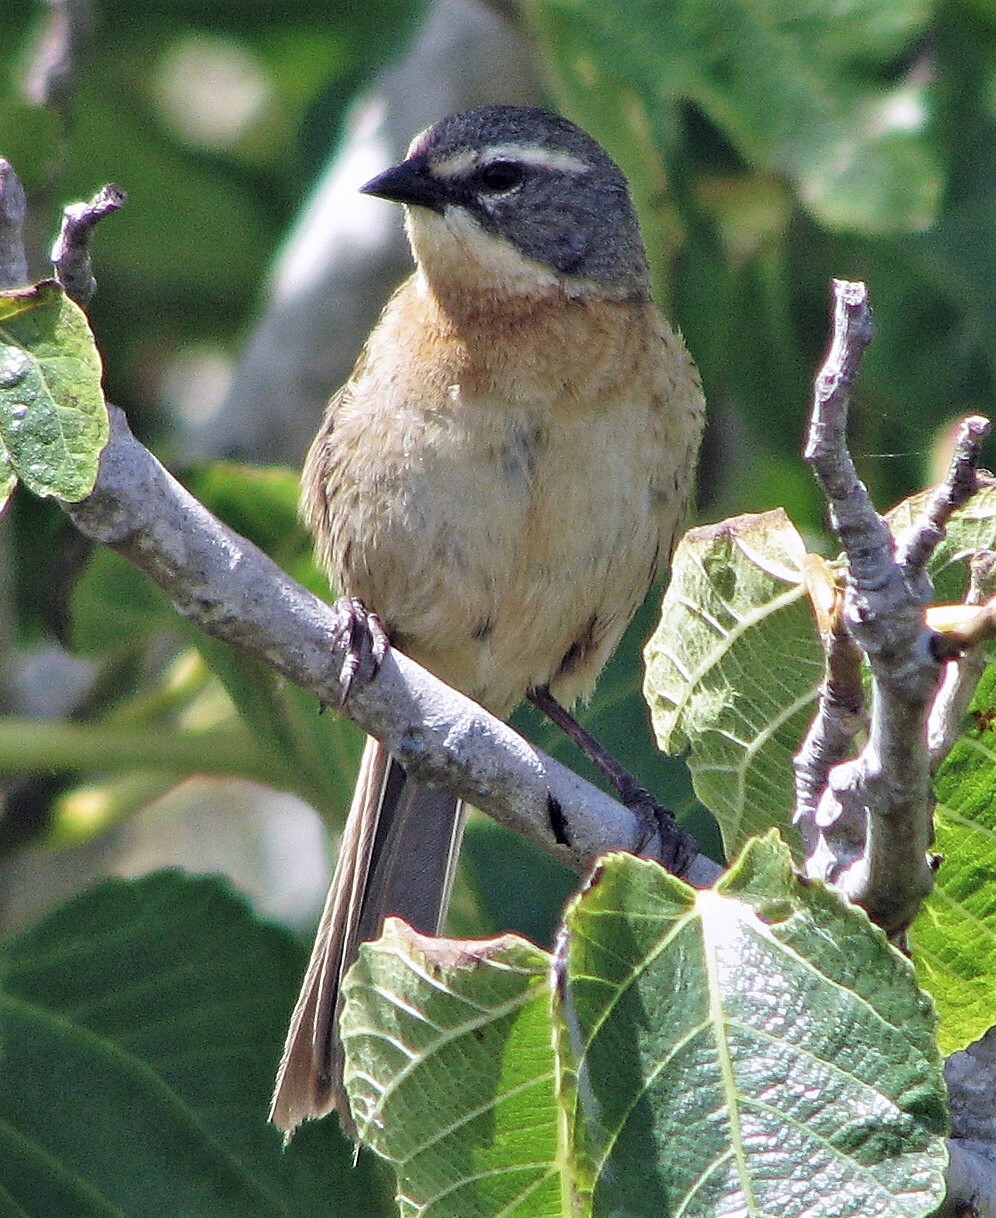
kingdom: Animalia
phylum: Chordata
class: Aves
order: Passeriformes
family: Thraupidae
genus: Donacospiza
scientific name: Donacospiza albifrons
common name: Long-tailed reed finch
